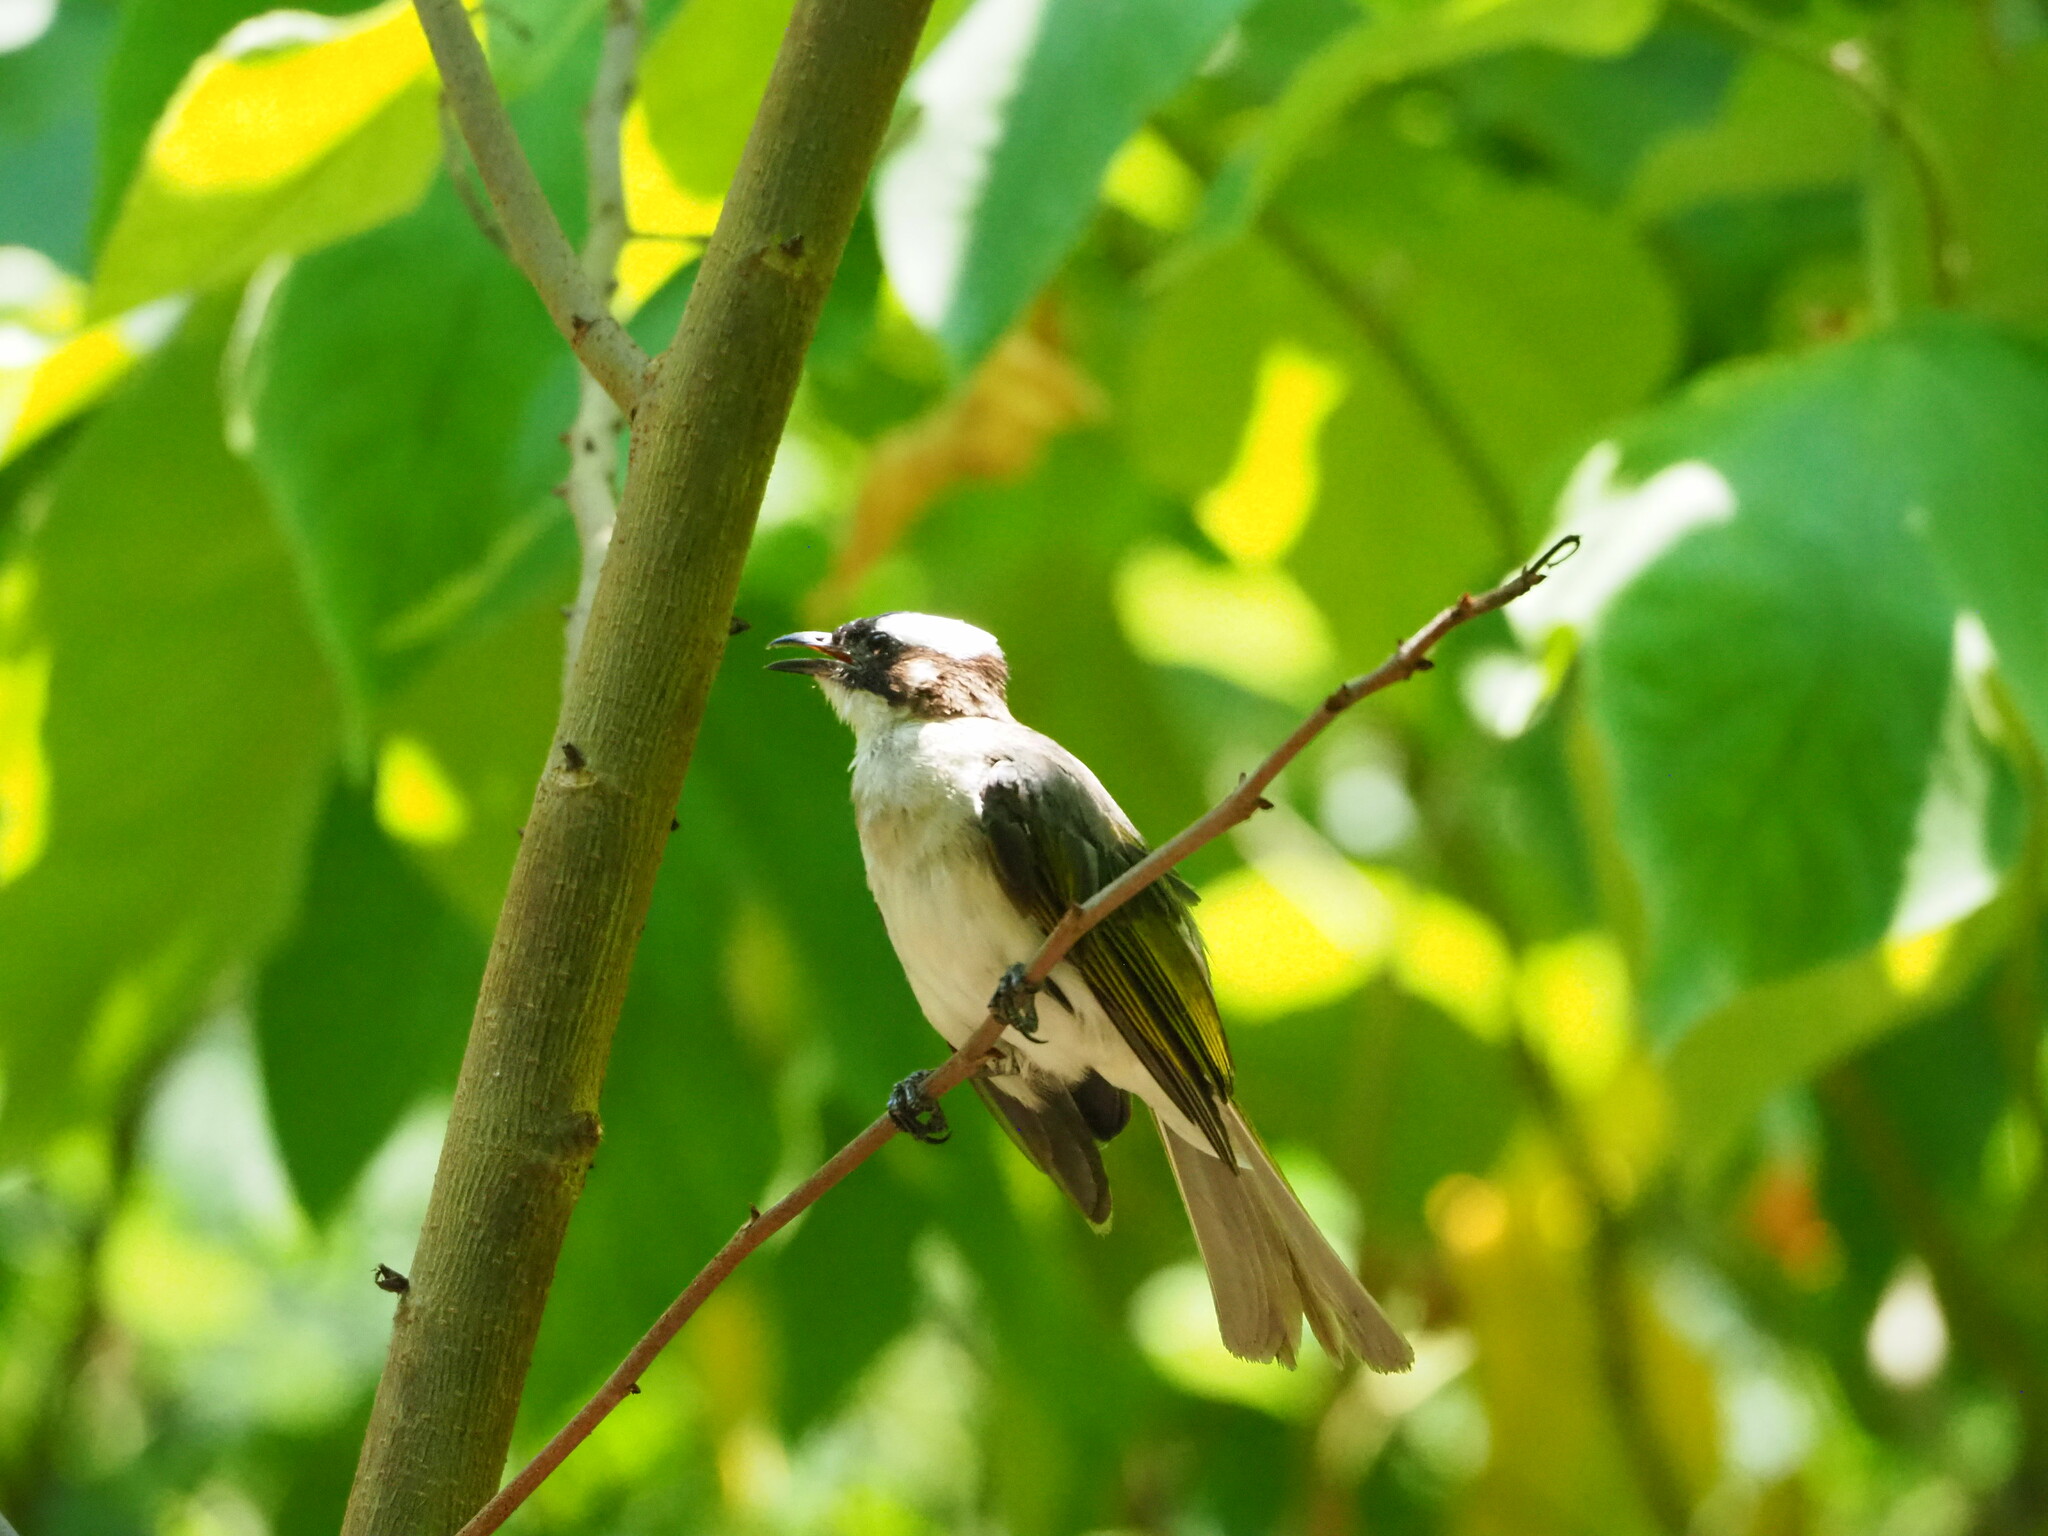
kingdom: Animalia
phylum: Chordata
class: Aves
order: Passeriformes
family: Pycnonotidae
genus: Pycnonotus
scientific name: Pycnonotus sinensis
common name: Light-vented bulbul
